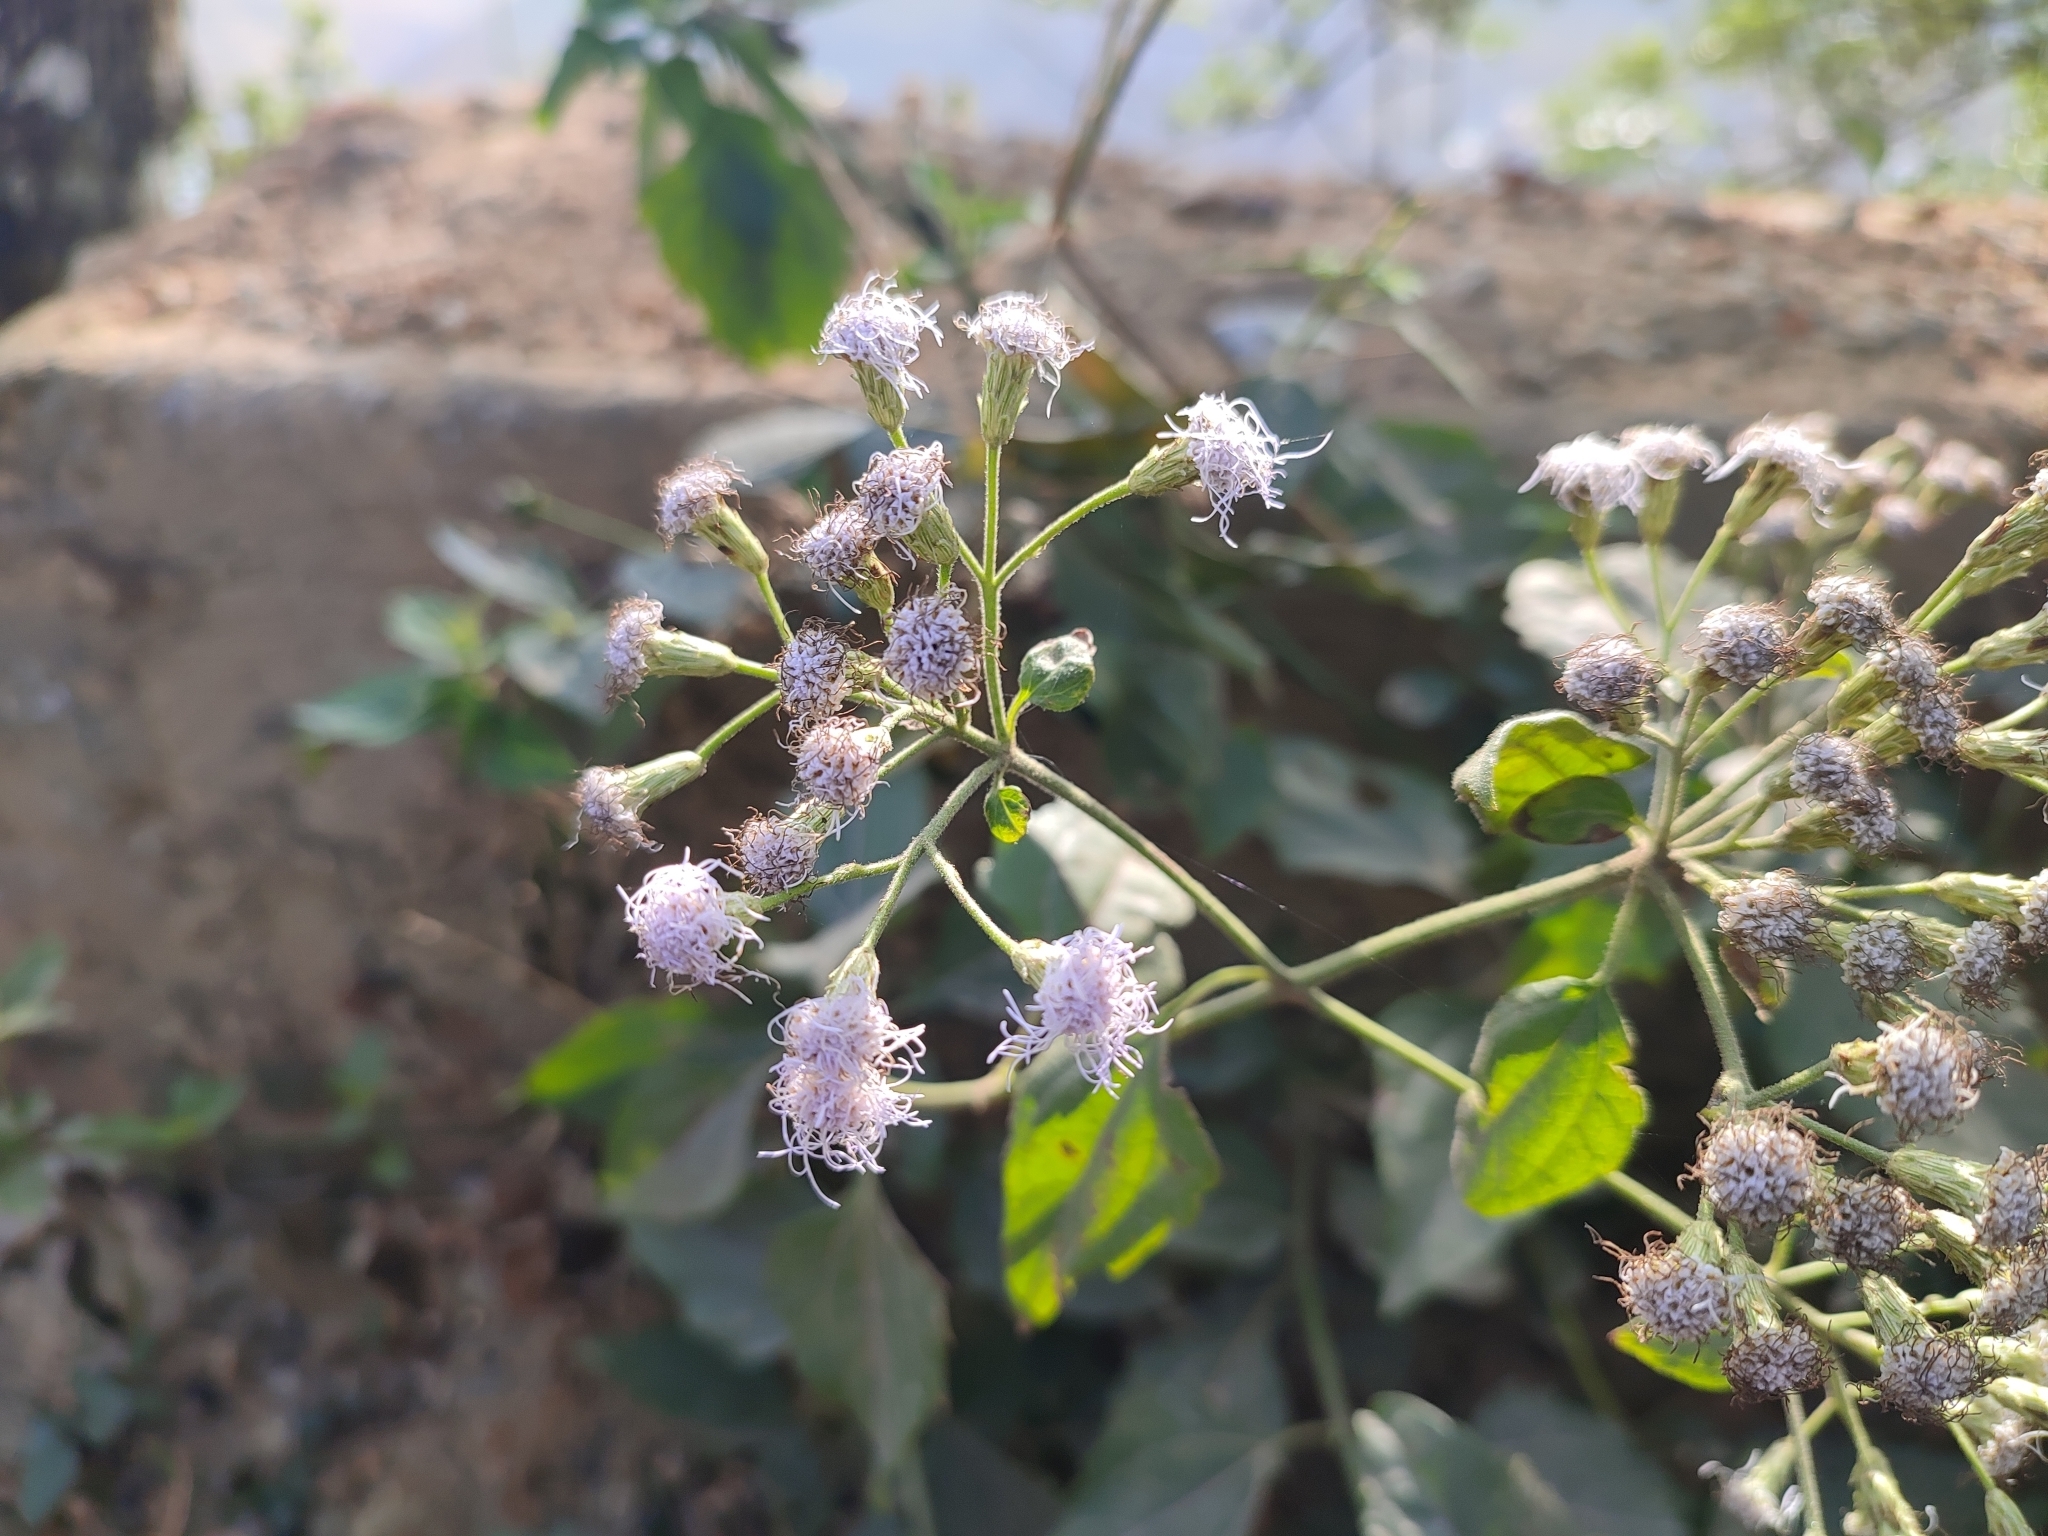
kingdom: Plantae
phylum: Tracheophyta
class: Magnoliopsida
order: Asterales
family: Asteraceae
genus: Chromolaena
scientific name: Chromolaena odorata
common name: Siamweed
